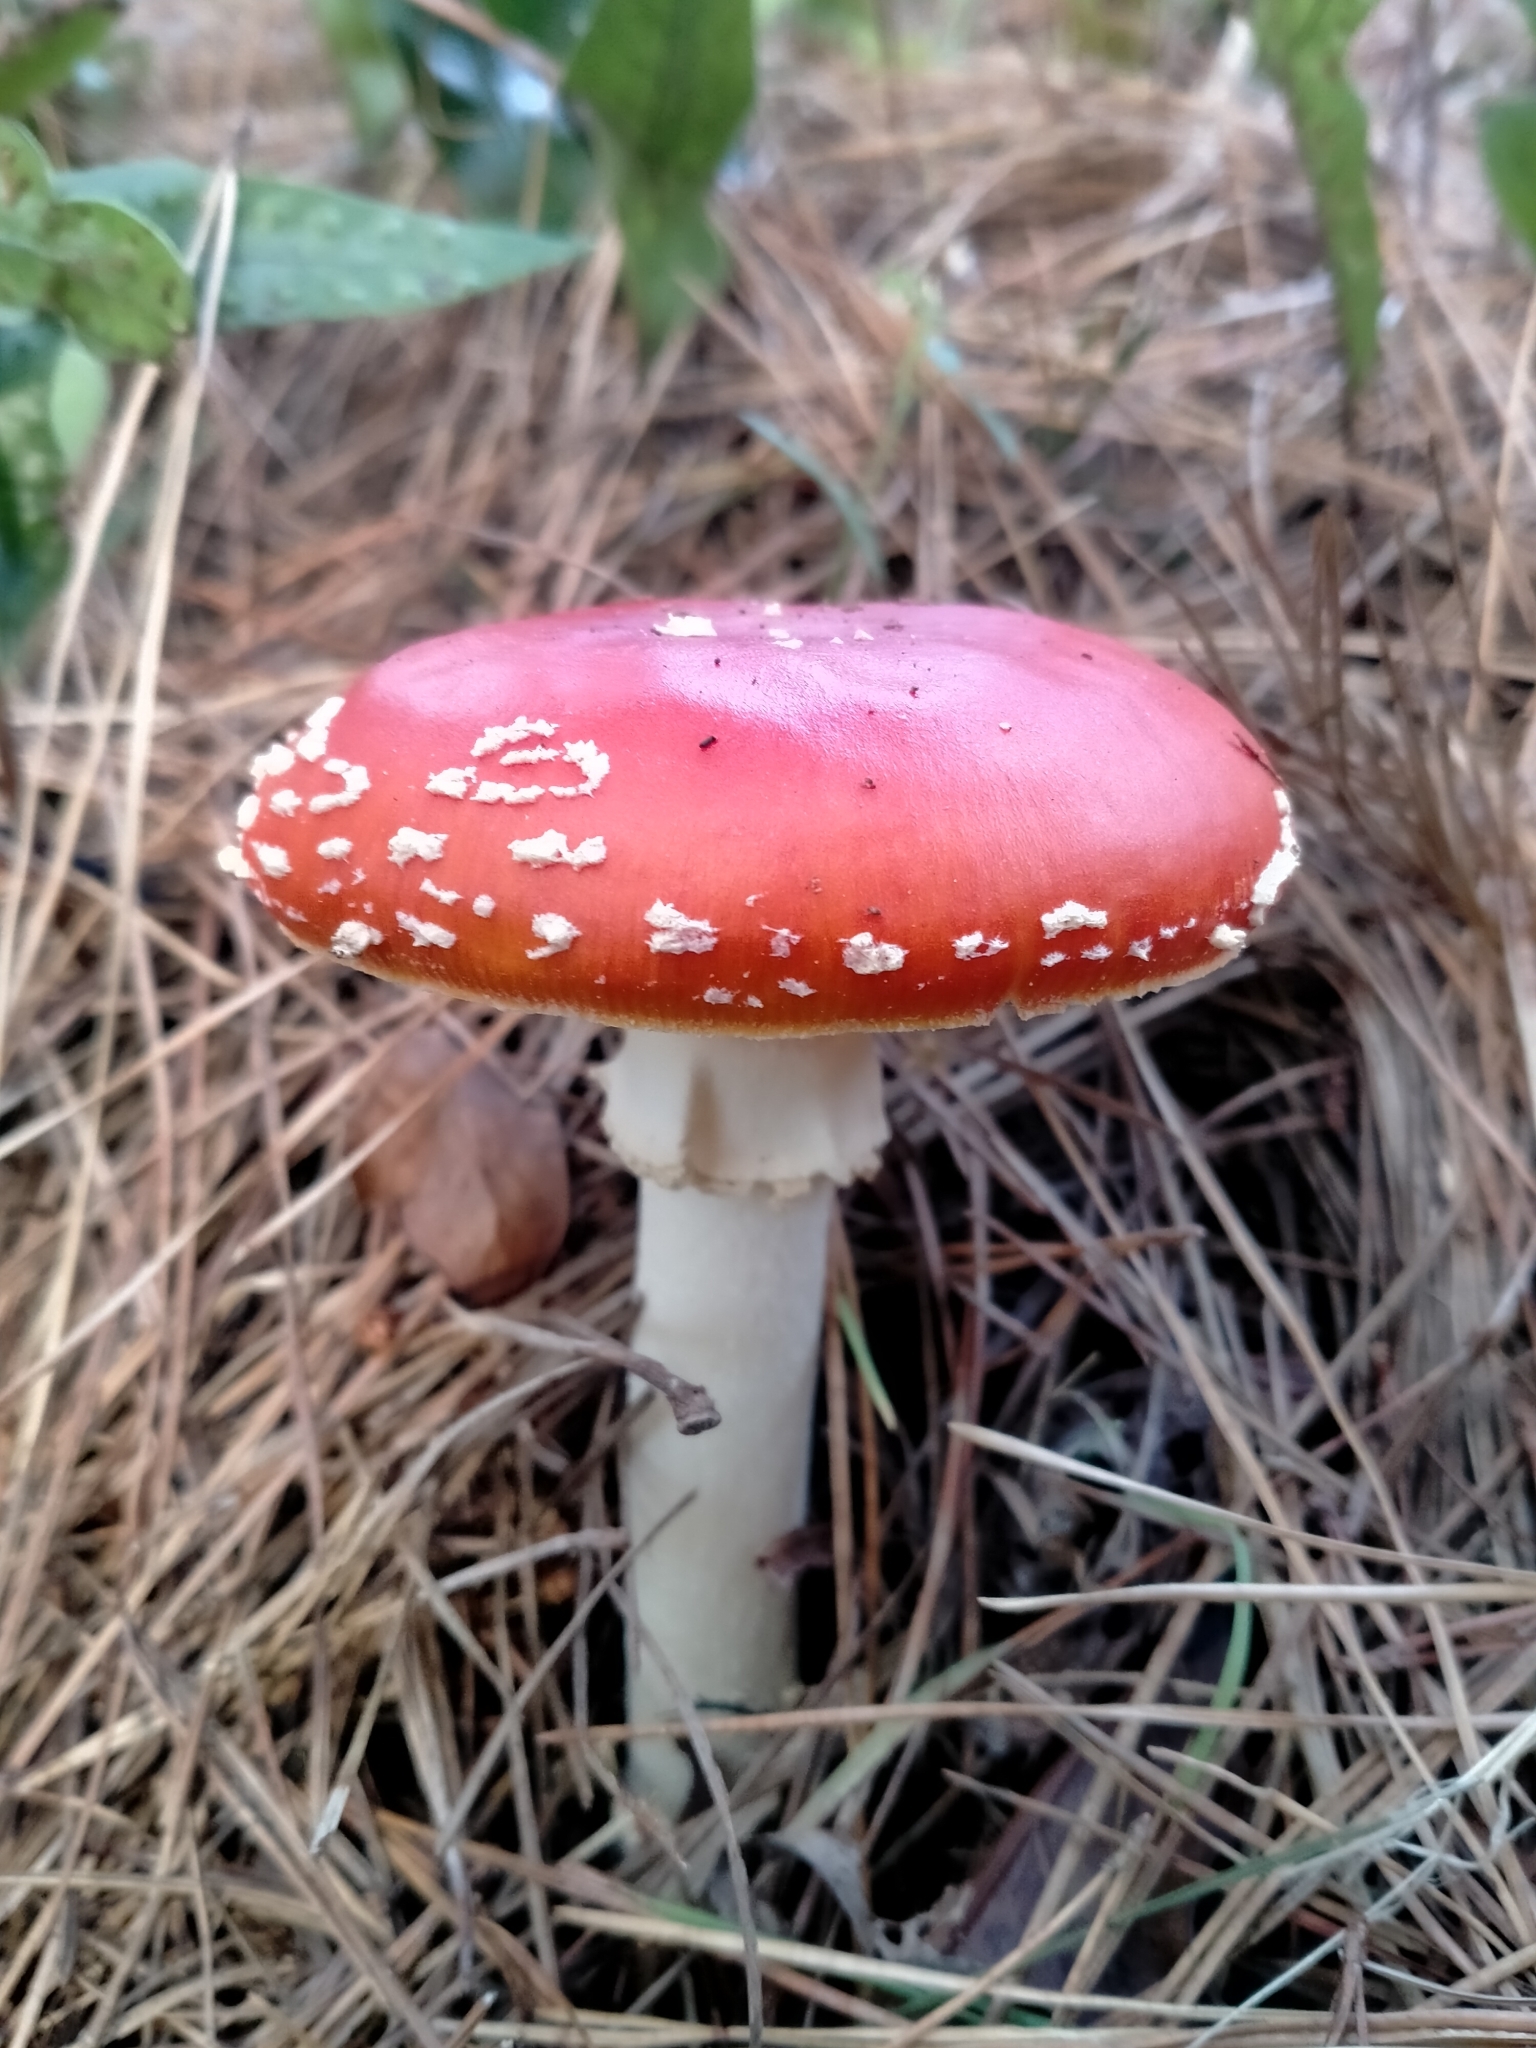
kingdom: Fungi
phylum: Basidiomycota
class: Agaricomycetes
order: Agaricales
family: Amanitaceae
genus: Amanita
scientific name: Amanita muscaria
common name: Fly agaric
